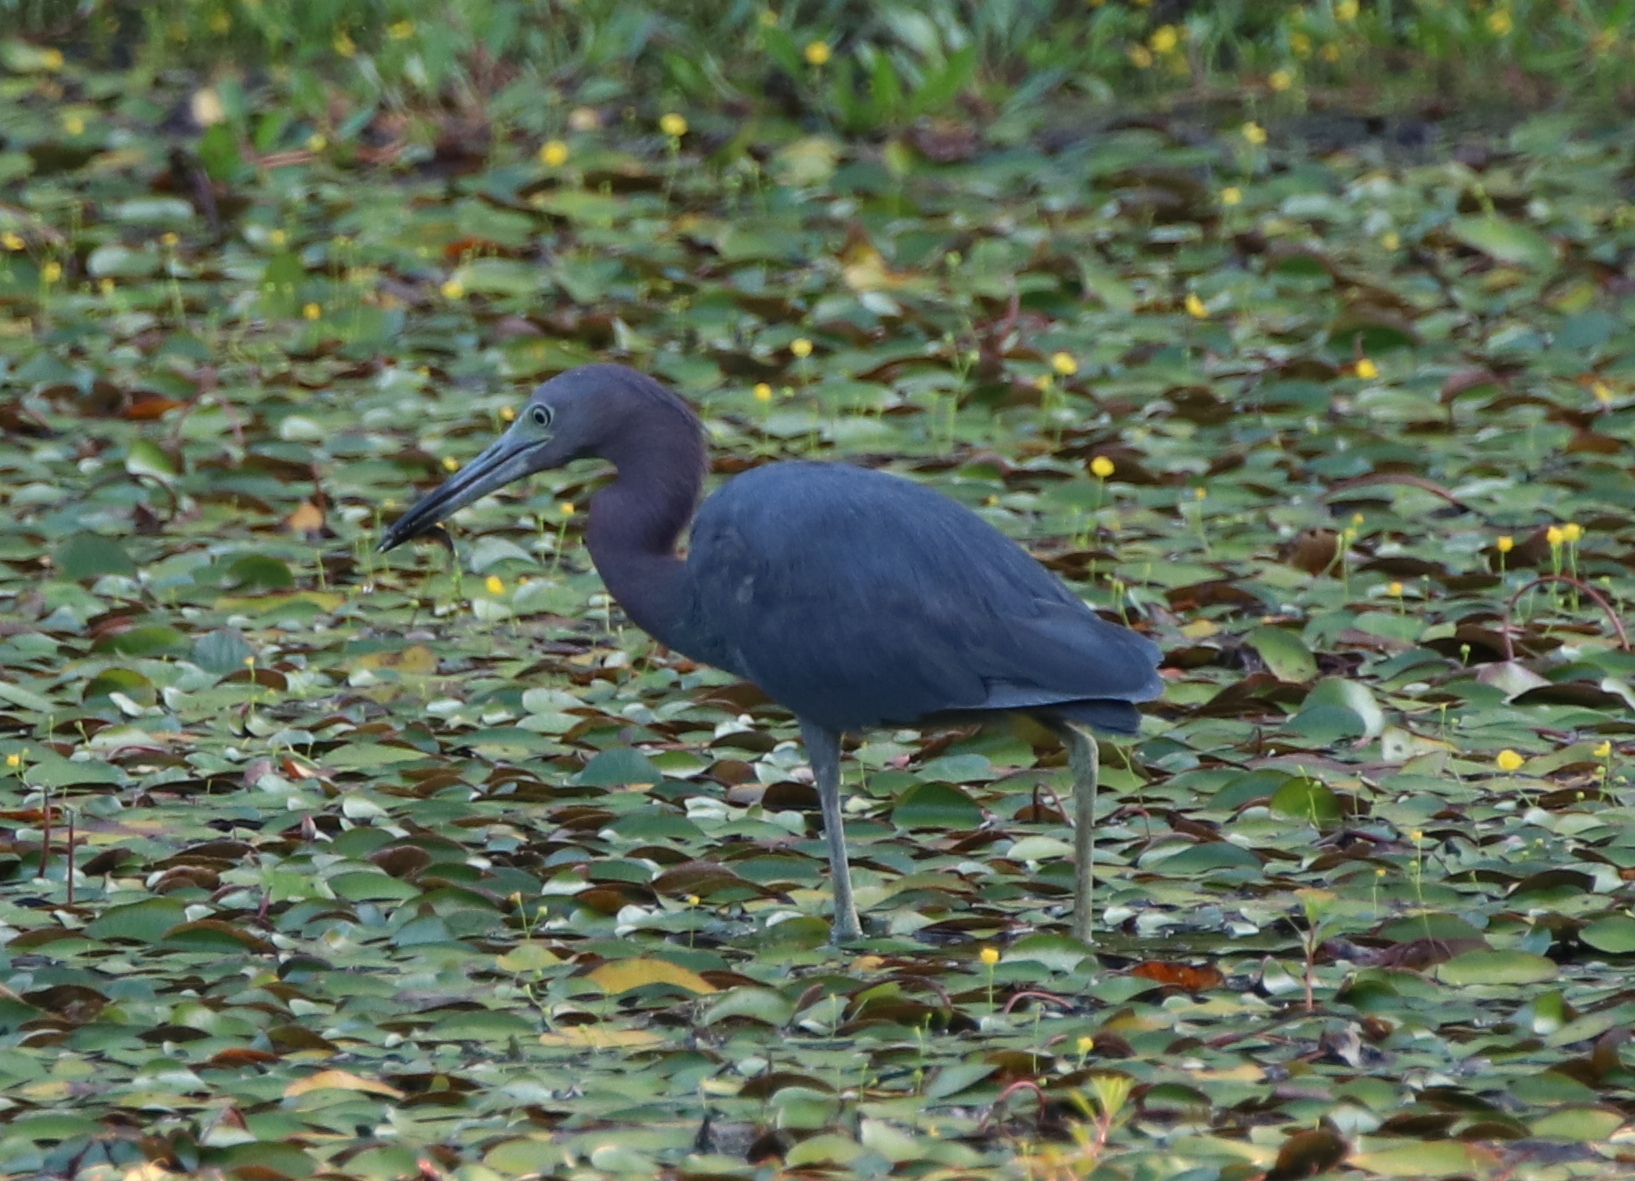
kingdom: Animalia
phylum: Chordata
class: Aves
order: Pelecaniformes
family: Ardeidae
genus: Egretta
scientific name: Egretta caerulea
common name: Little blue heron
